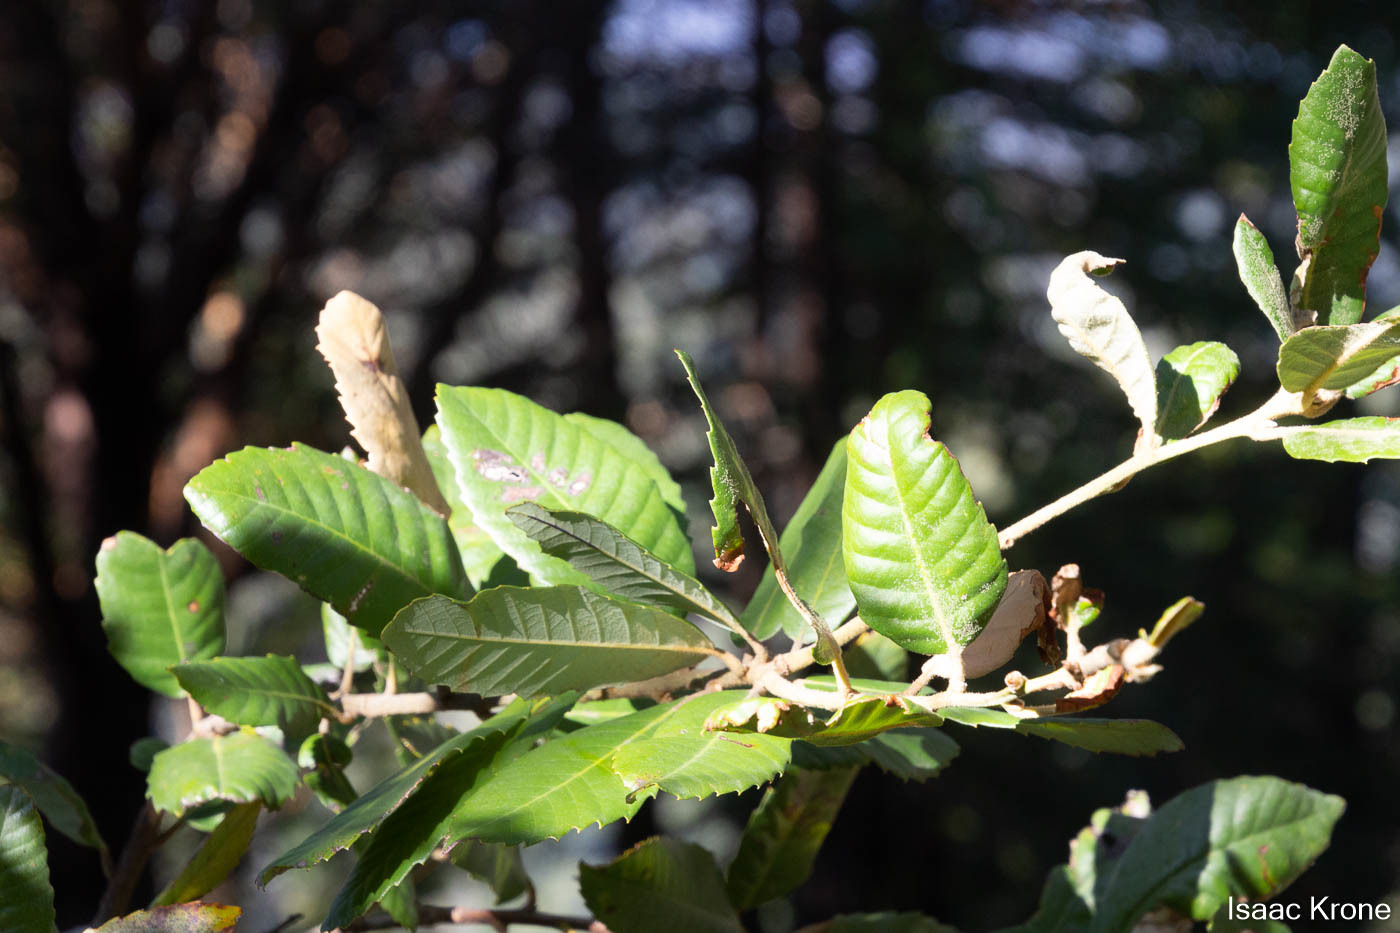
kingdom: Plantae
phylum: Tracheophyta
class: Magnoliopsida
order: Fagales
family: Fagaceae
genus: Notholithocarpus
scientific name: Notholithocarpus densiflorus
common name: Tan bark oak
